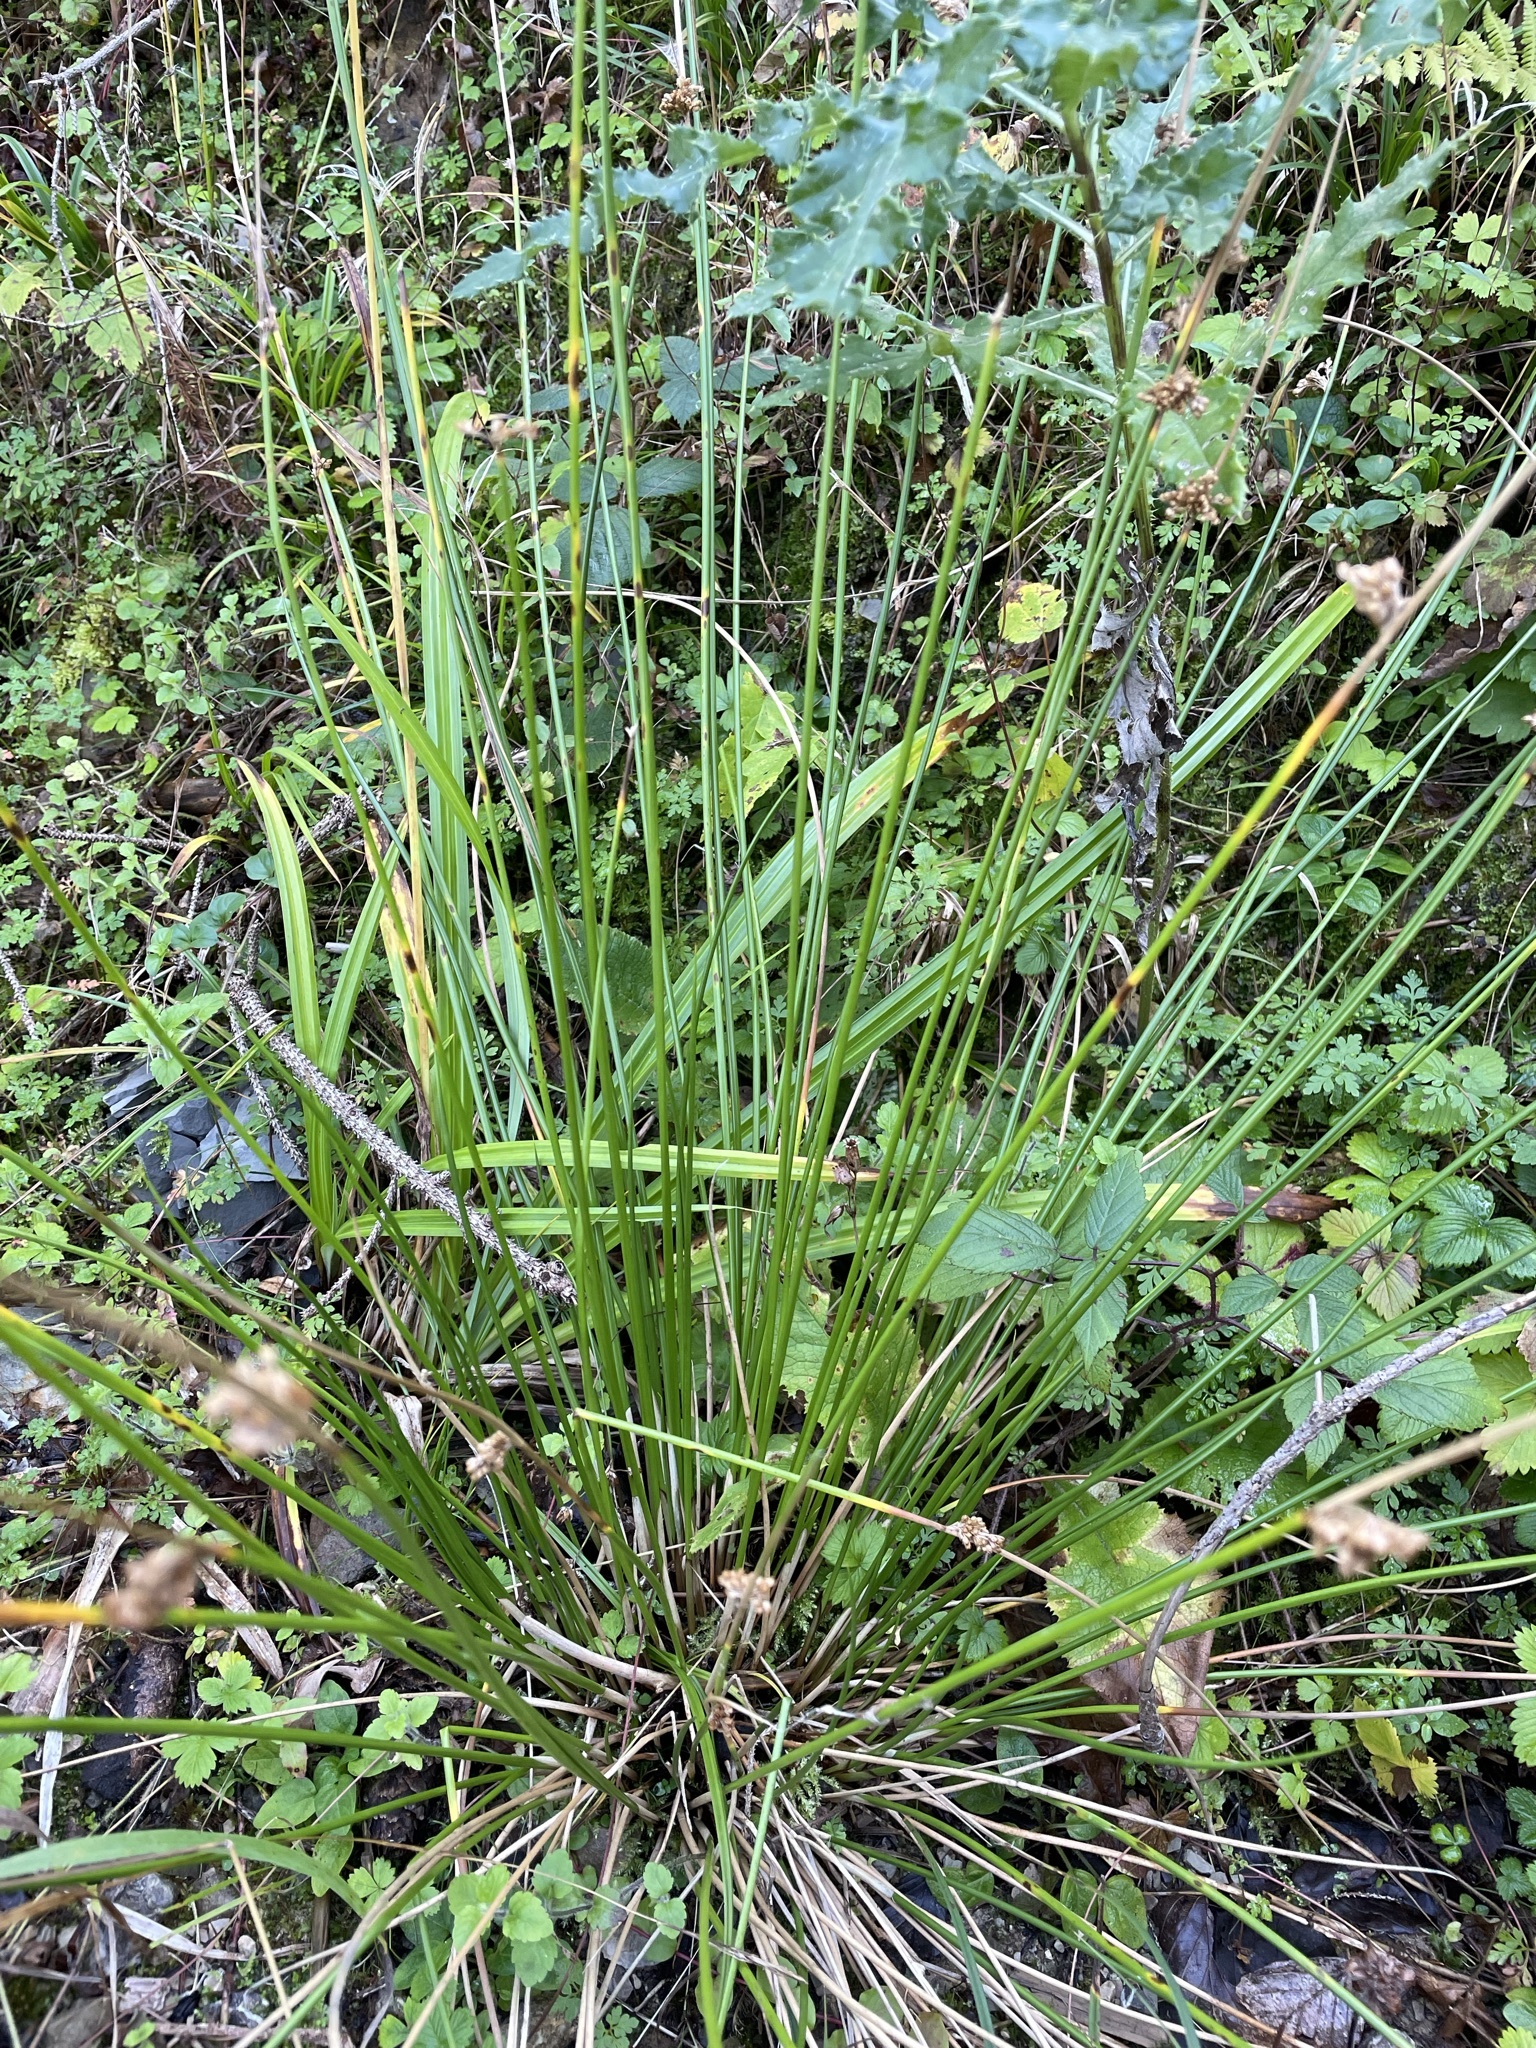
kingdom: Plantae
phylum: Tracheophyta
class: Liliopsida
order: Poales
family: Juncaceae
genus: Juncus
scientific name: Juncus effusus
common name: Soft rush
